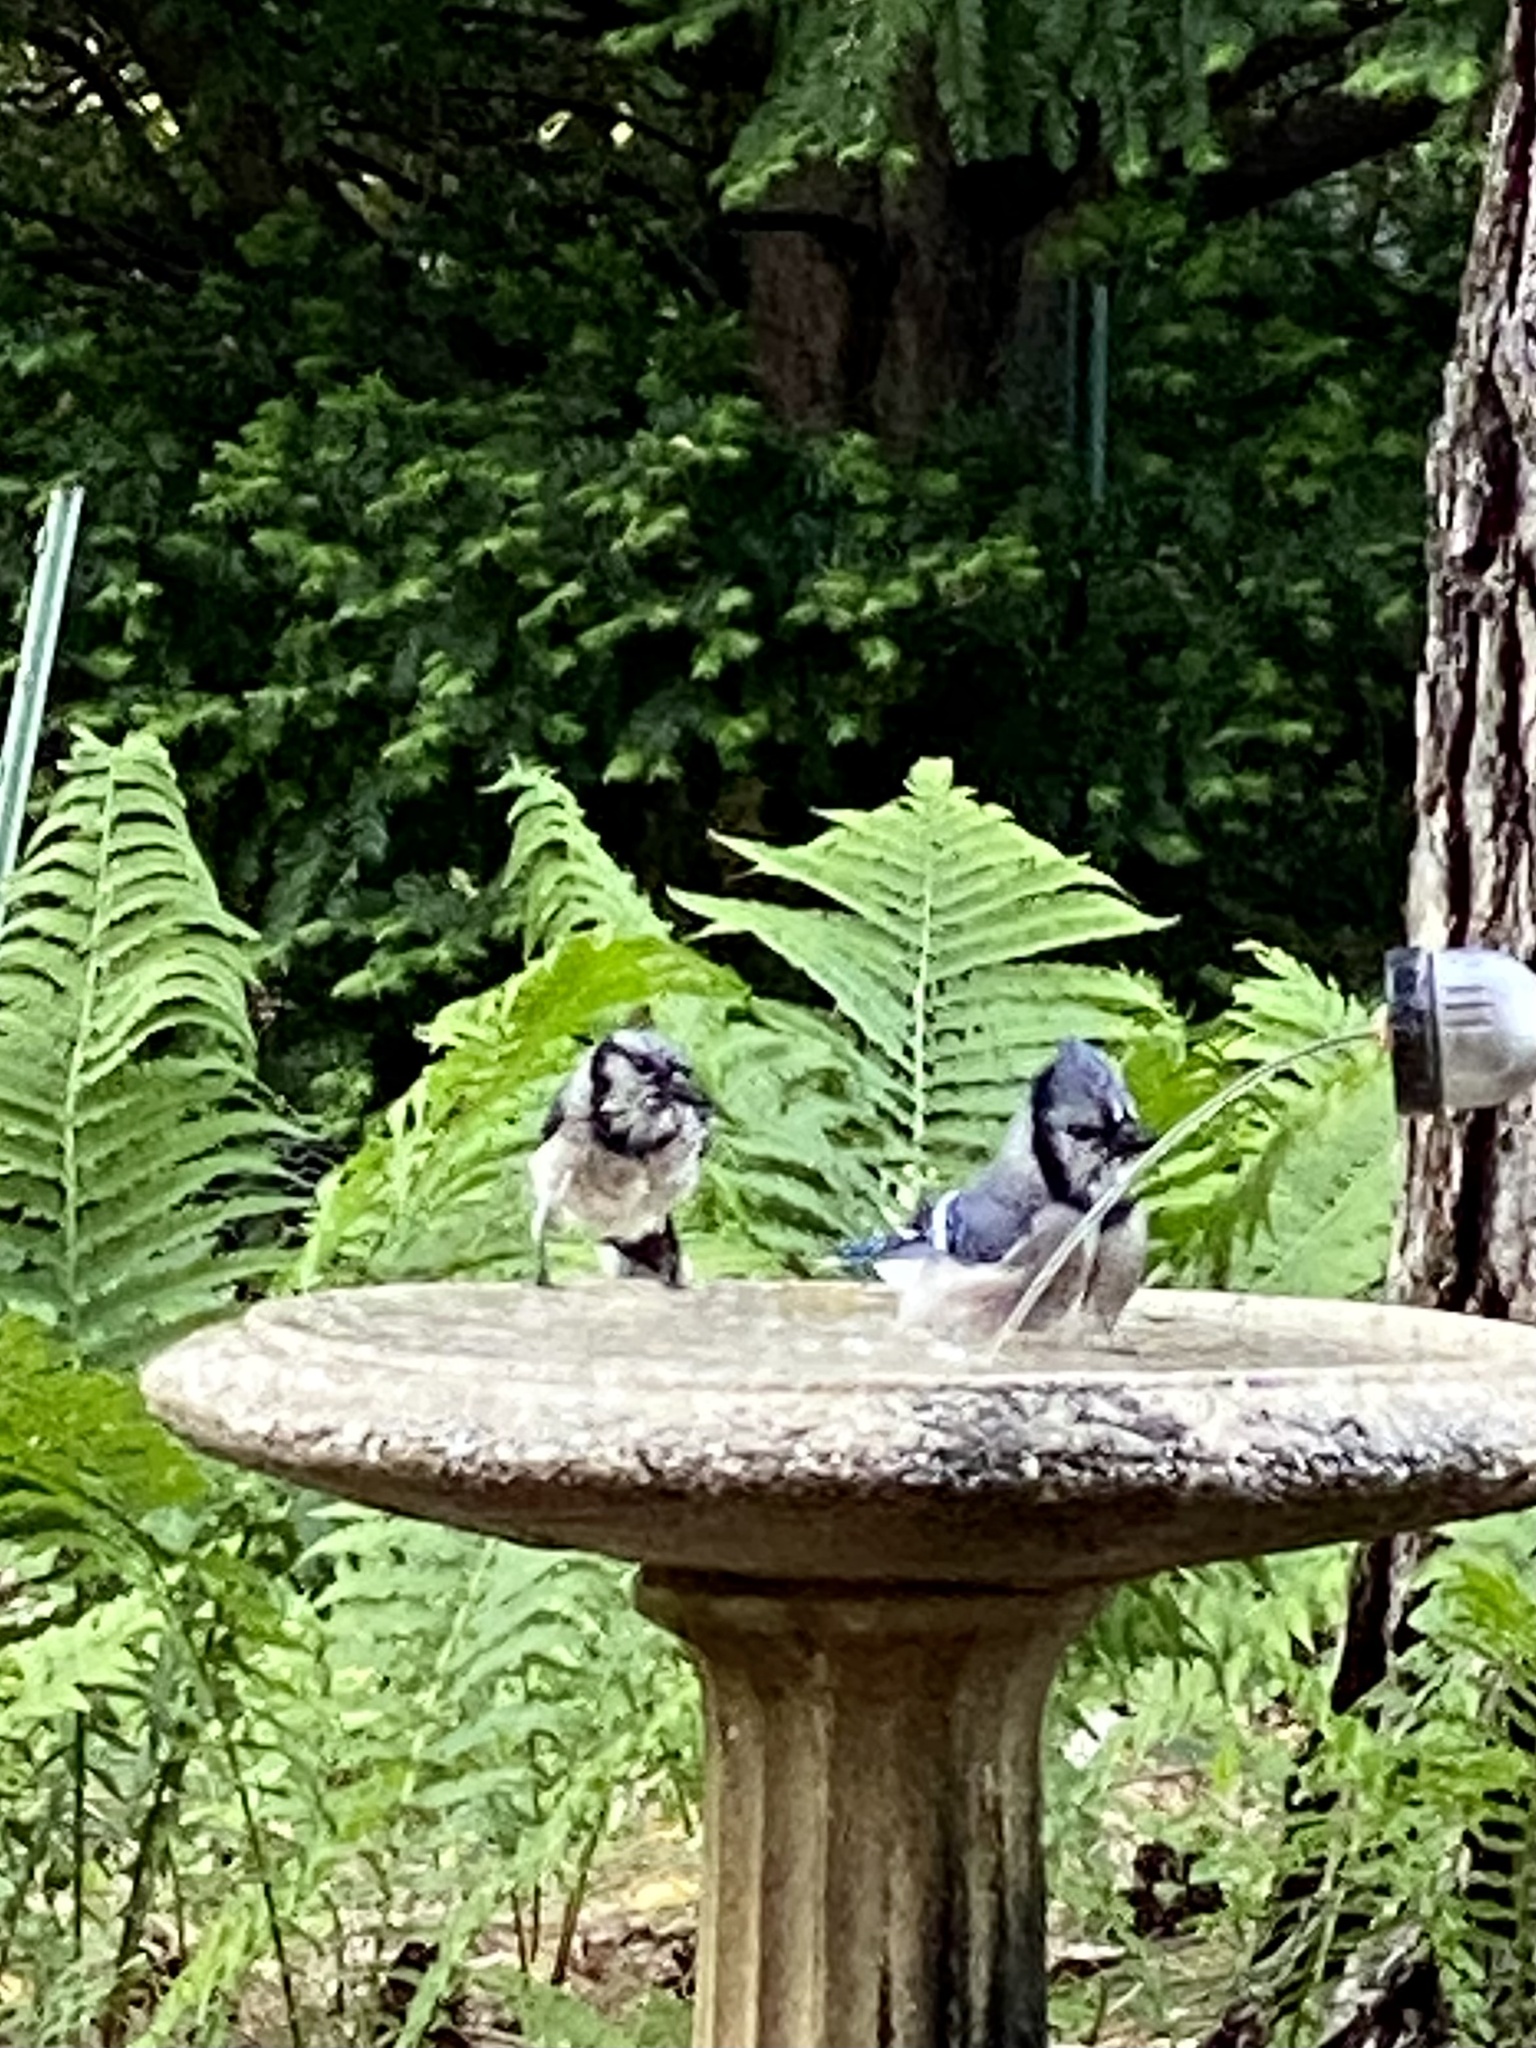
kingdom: Animalia
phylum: Chordata
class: Aves
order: Passeriformes
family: Corvidae
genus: Cyanocitta
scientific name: Cyanocitta cristata
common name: Blue jay
